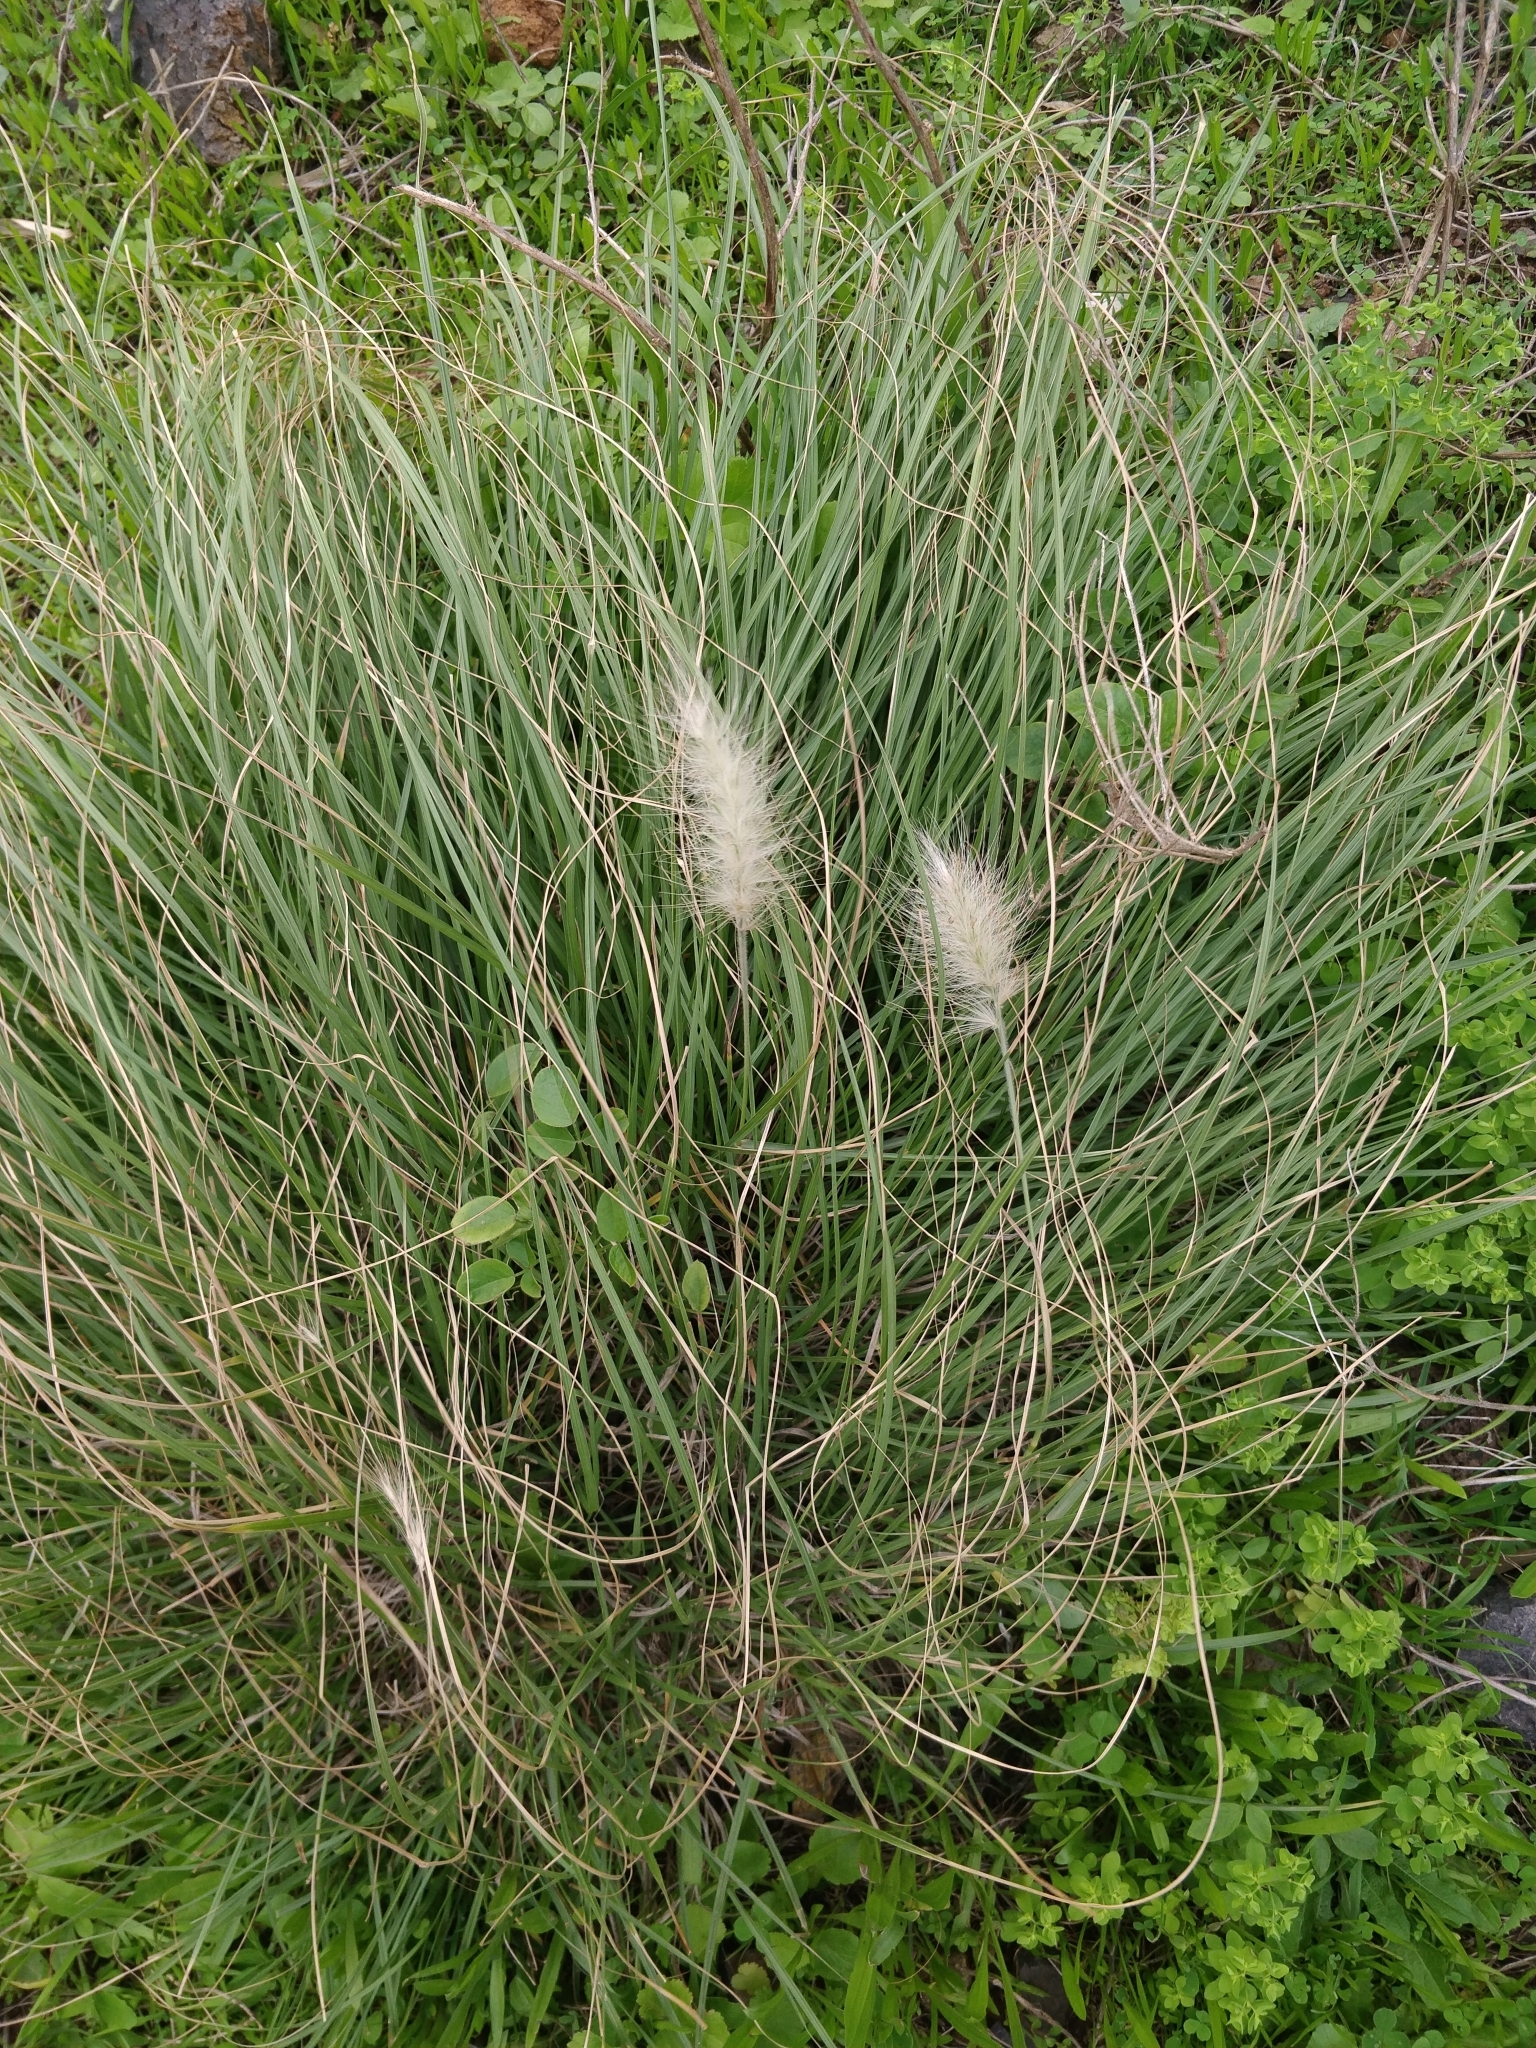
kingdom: Plantae
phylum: Tracheophyta
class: Liliopsida
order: Poales
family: Poaceae
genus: Cenchrus
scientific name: Cenchrus longisetus
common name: Feathertop
